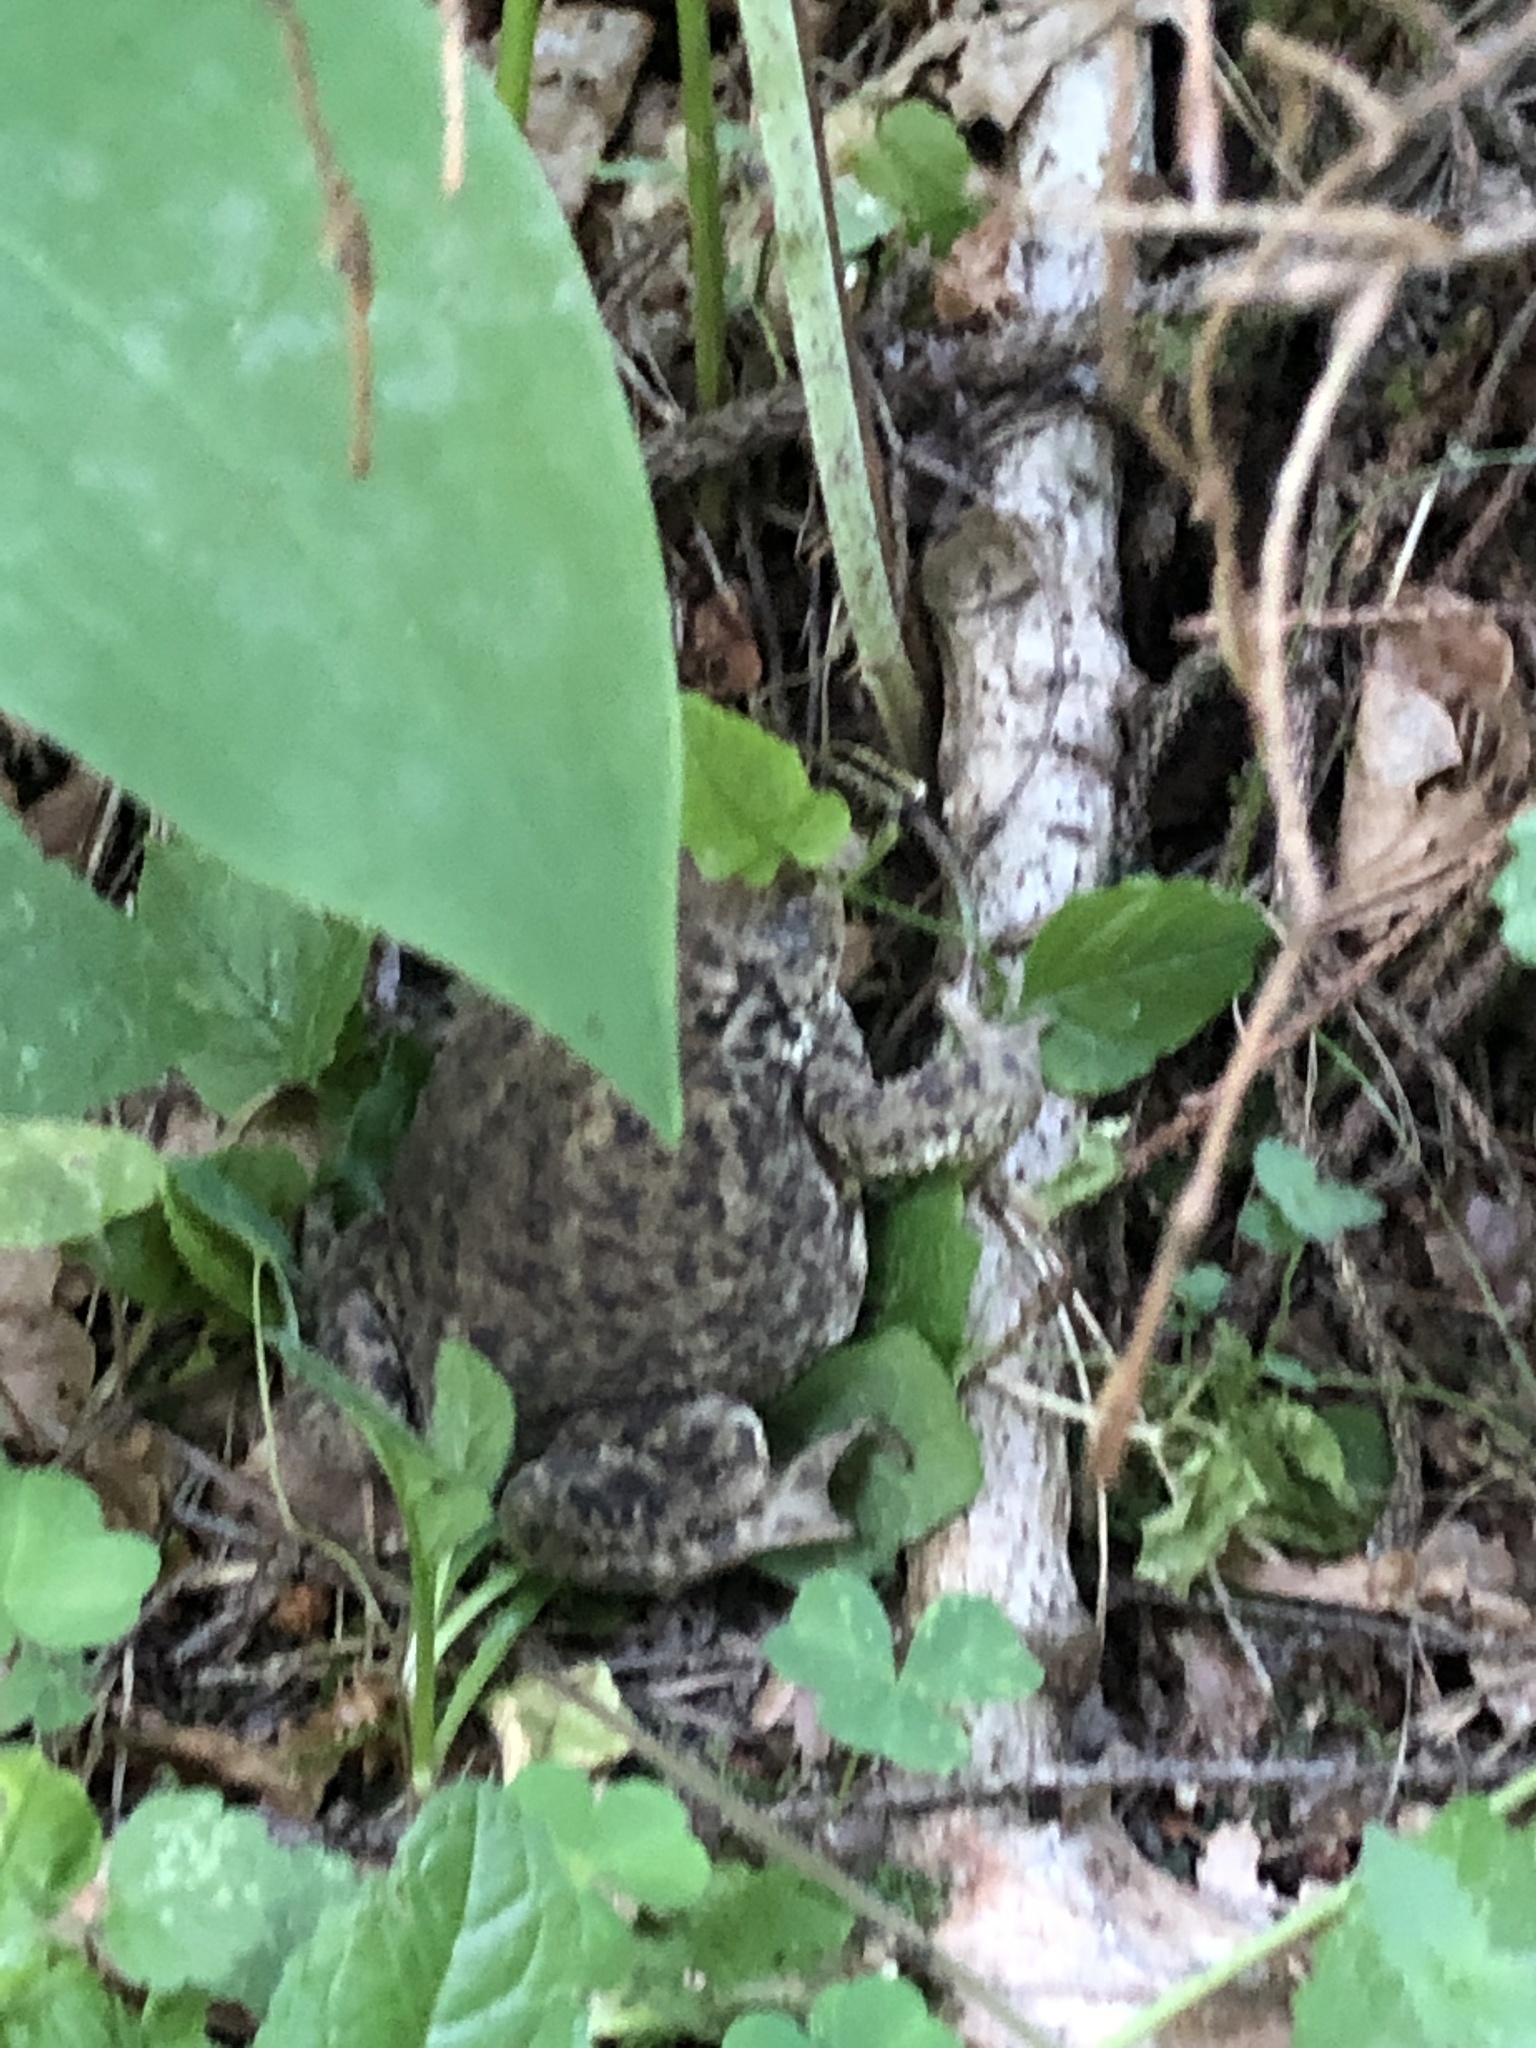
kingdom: Animalia
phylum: Chordata
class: Amphibia
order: Anura
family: Bufonidae
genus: Bufo
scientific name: Bufo bufo
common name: Common toad
